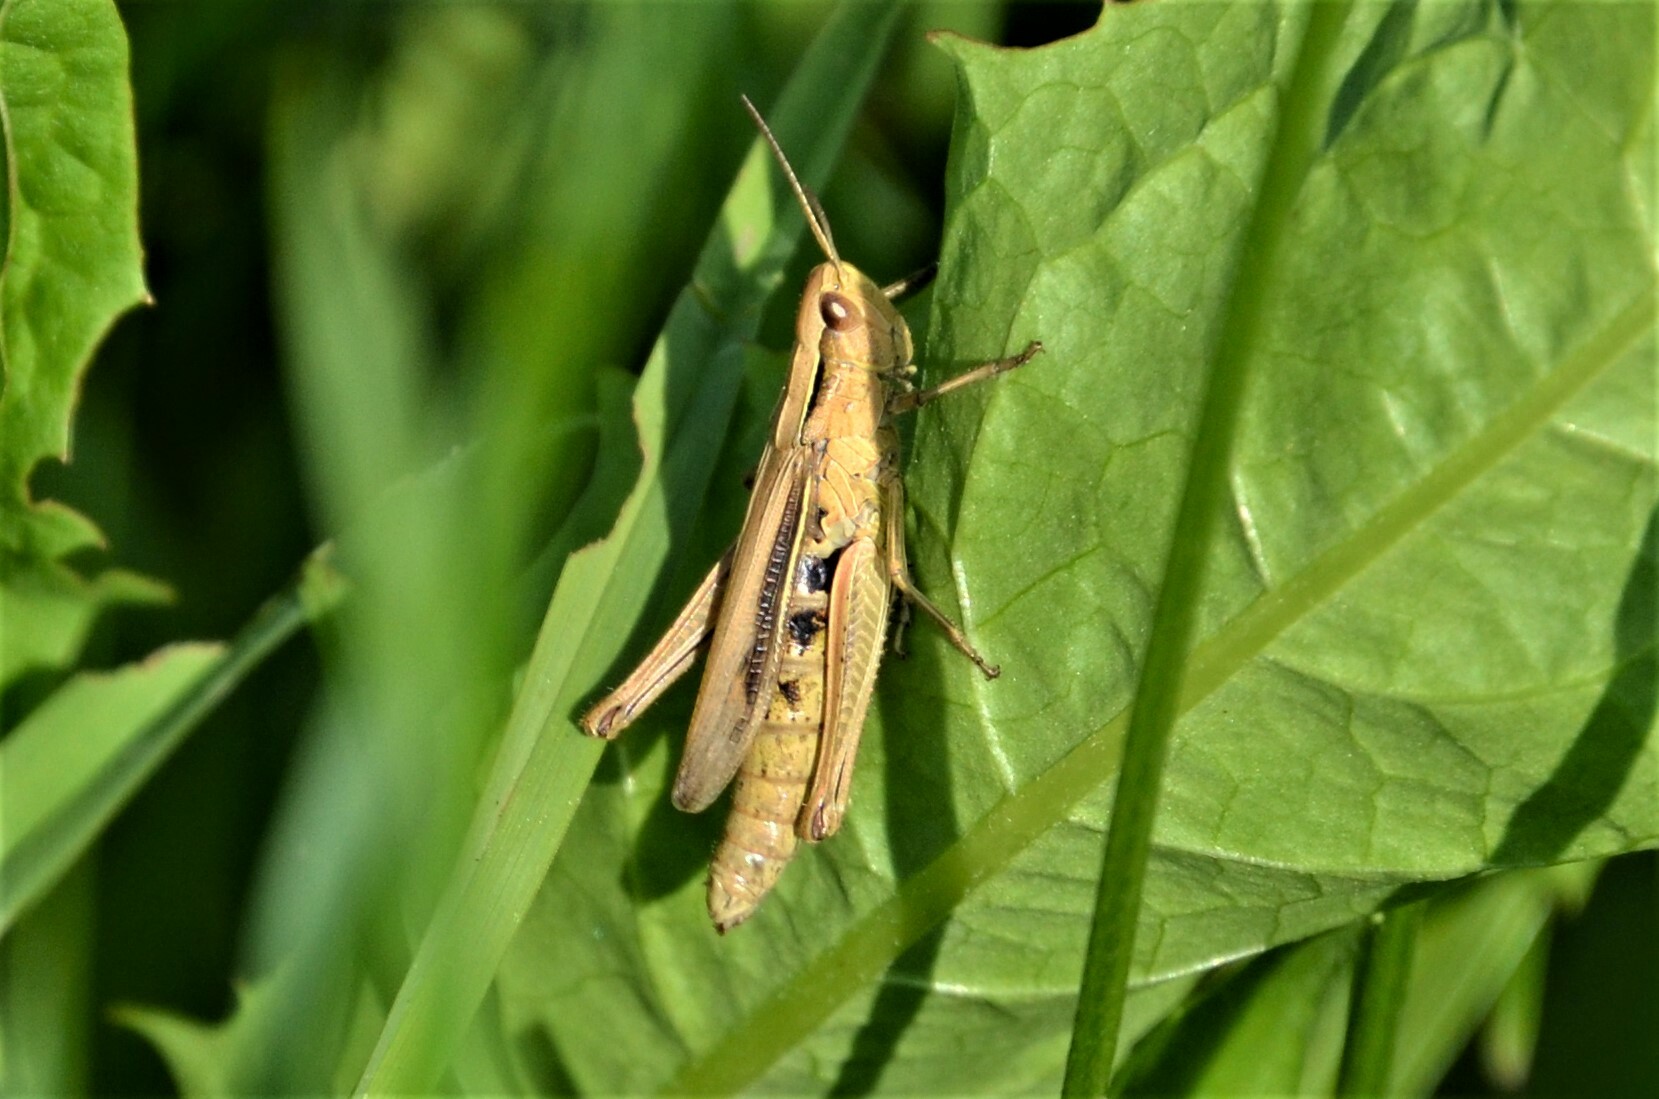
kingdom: Animalia
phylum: Arthropoda
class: Insecta
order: Orthoptera
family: Acrididae
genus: Chorthippus
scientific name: Chorthippus albomarginatus
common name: Lesser marsh grasshopper
